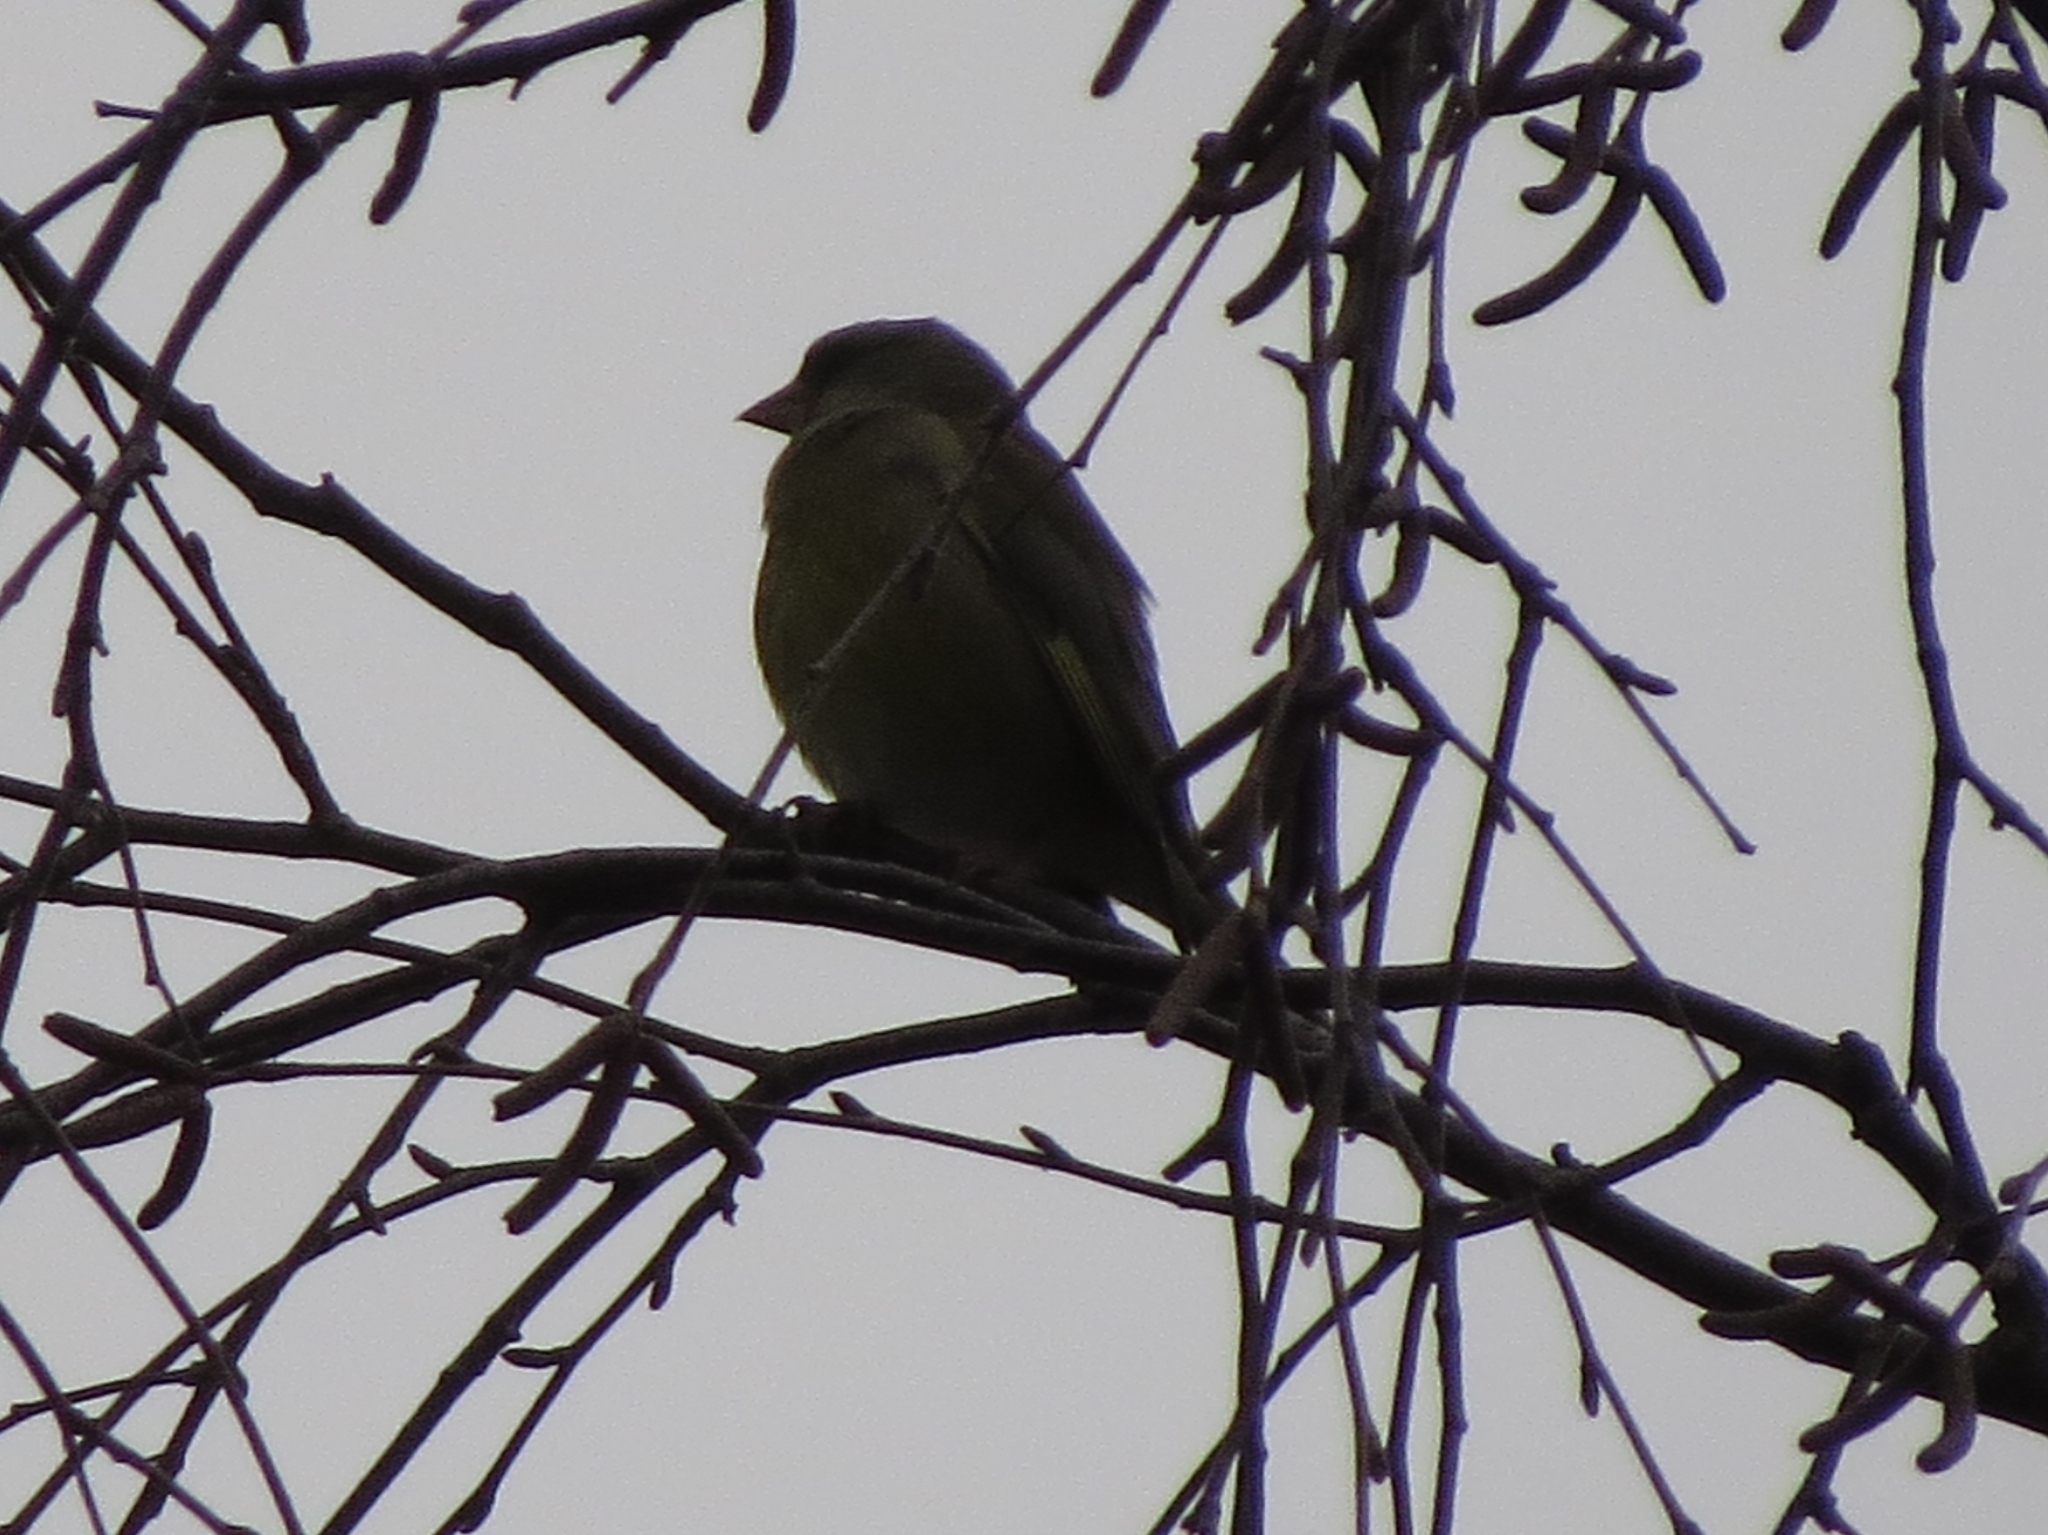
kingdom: Plantae
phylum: Tracheophyta
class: Liliopsida
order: Poales
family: Poaceae
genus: Chloris
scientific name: Chloris chloris
